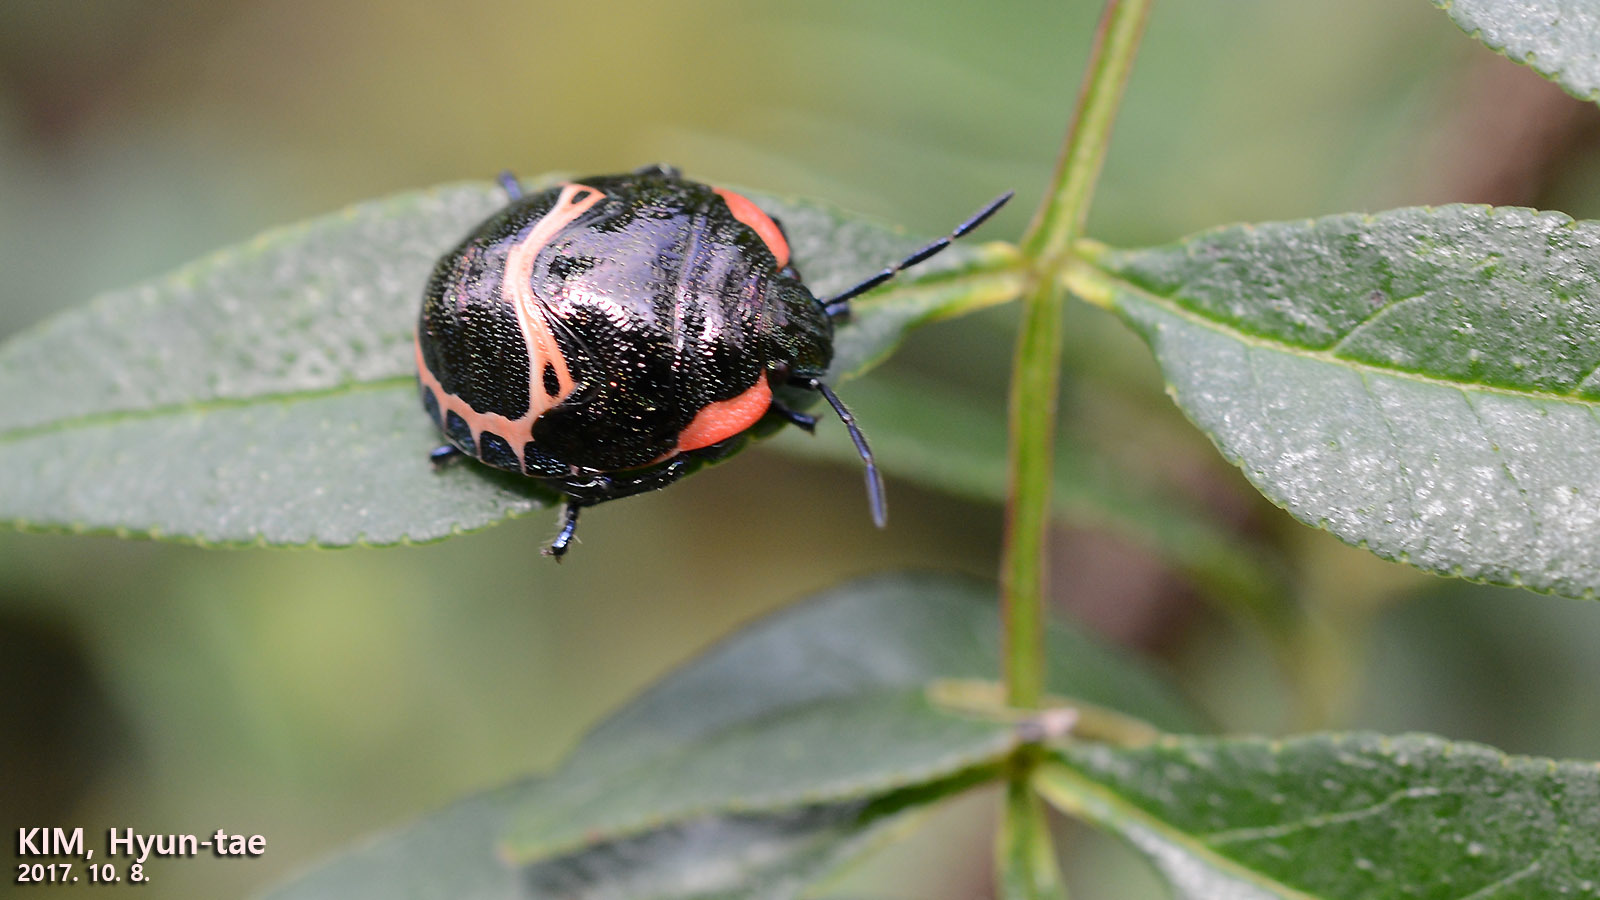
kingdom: Animalia
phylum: Arthropoda
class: Insecta
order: Hemiptera
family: Scutelleridae
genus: Poecilocoris
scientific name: Poecilocoris lewisi
